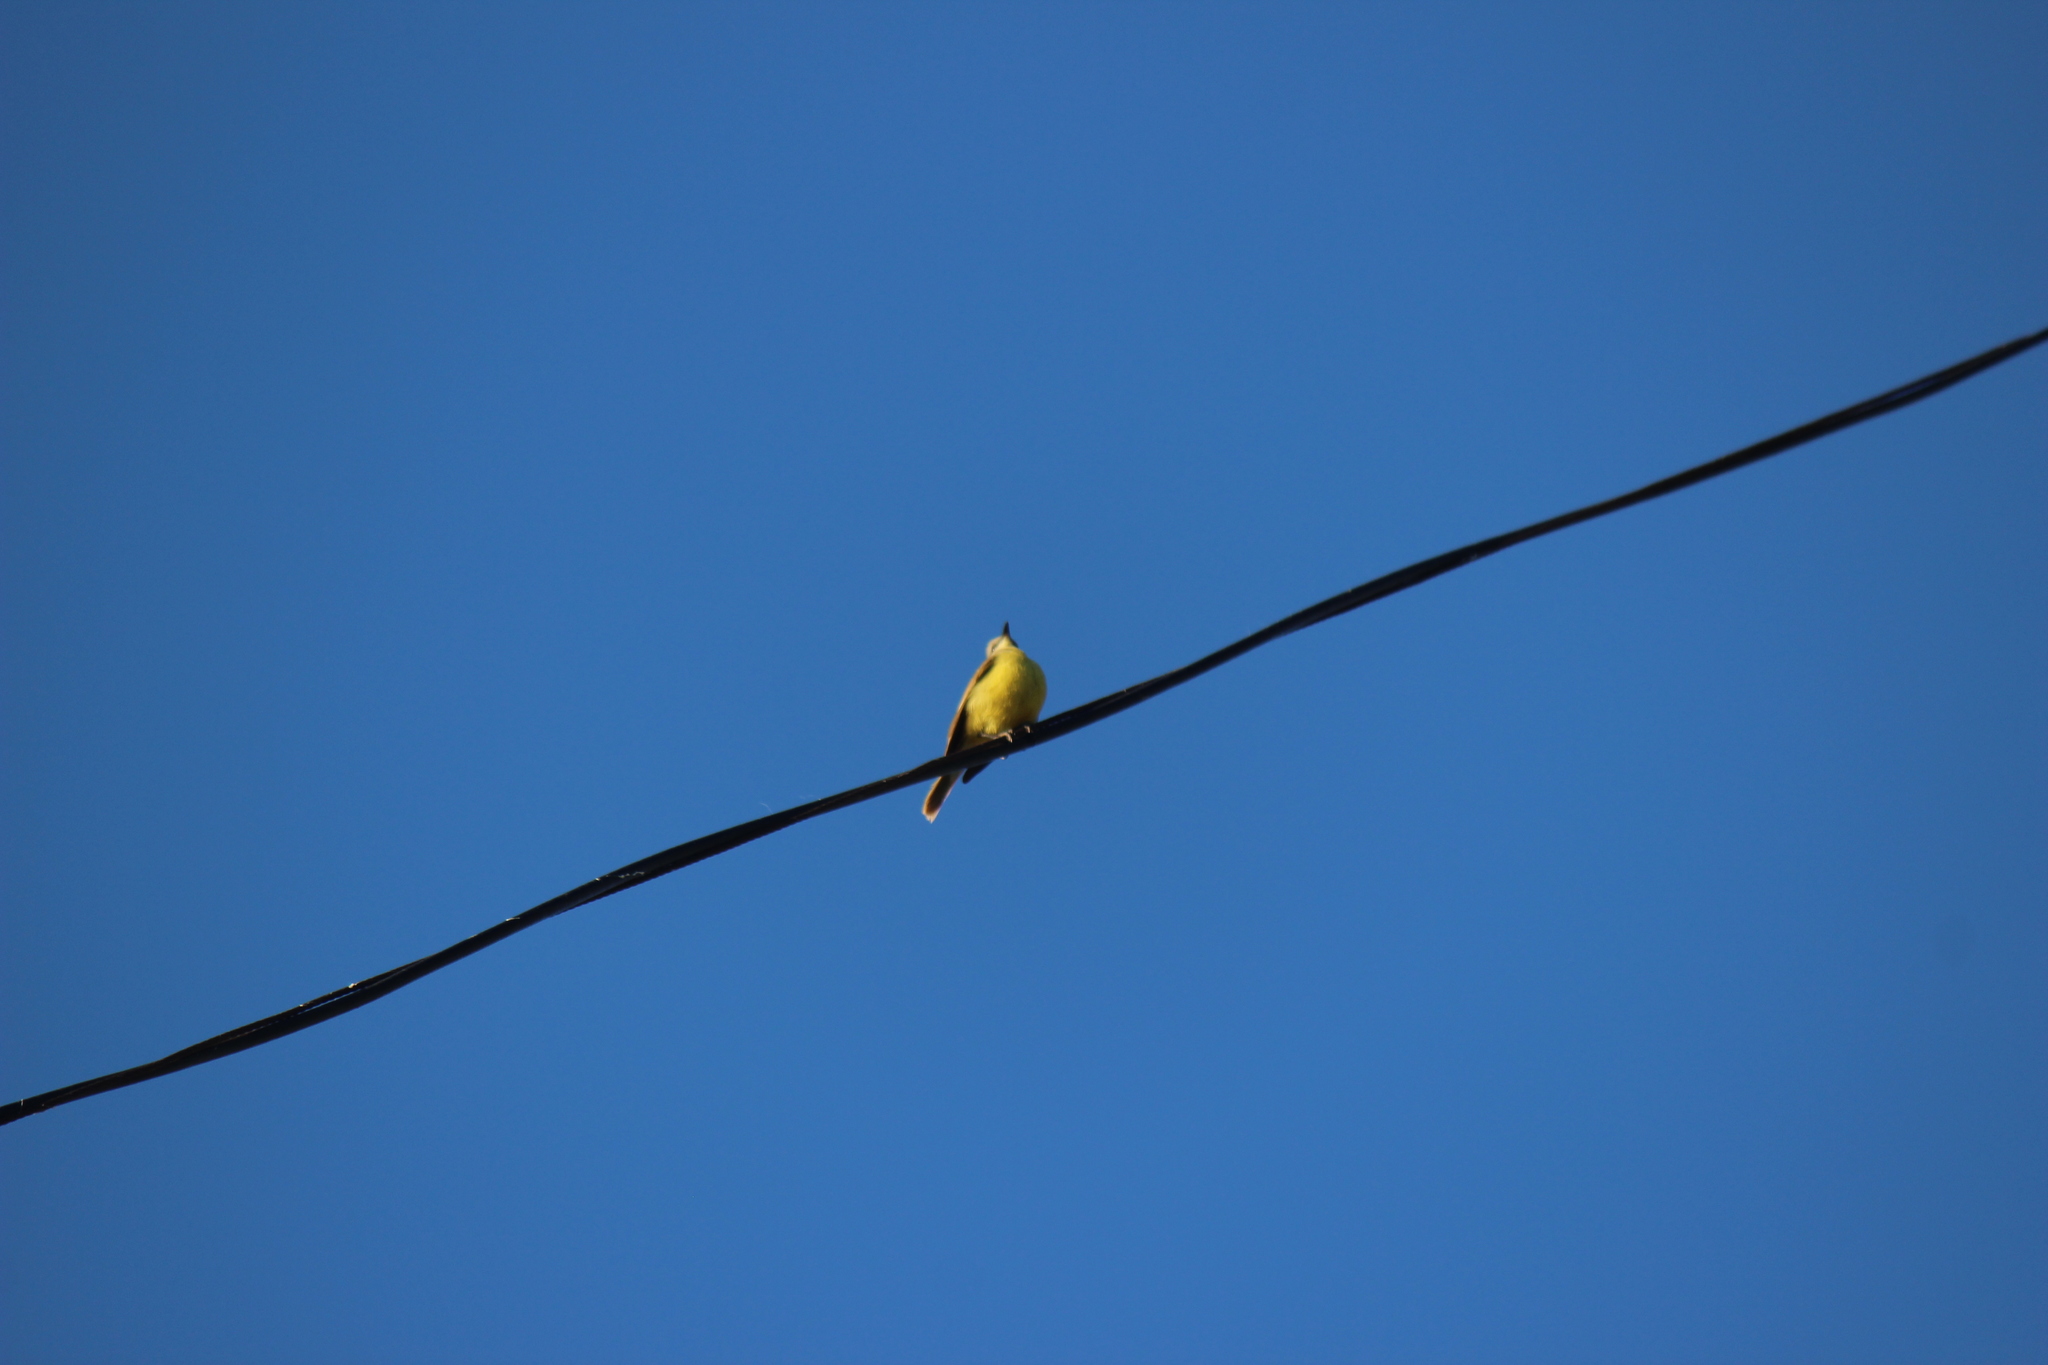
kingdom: Animalia
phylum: Chordata
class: Aves
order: Passeriformes
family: Tyrannidae
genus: Machetornis
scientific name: Machetornis rixosa
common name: Cattle tyrant
